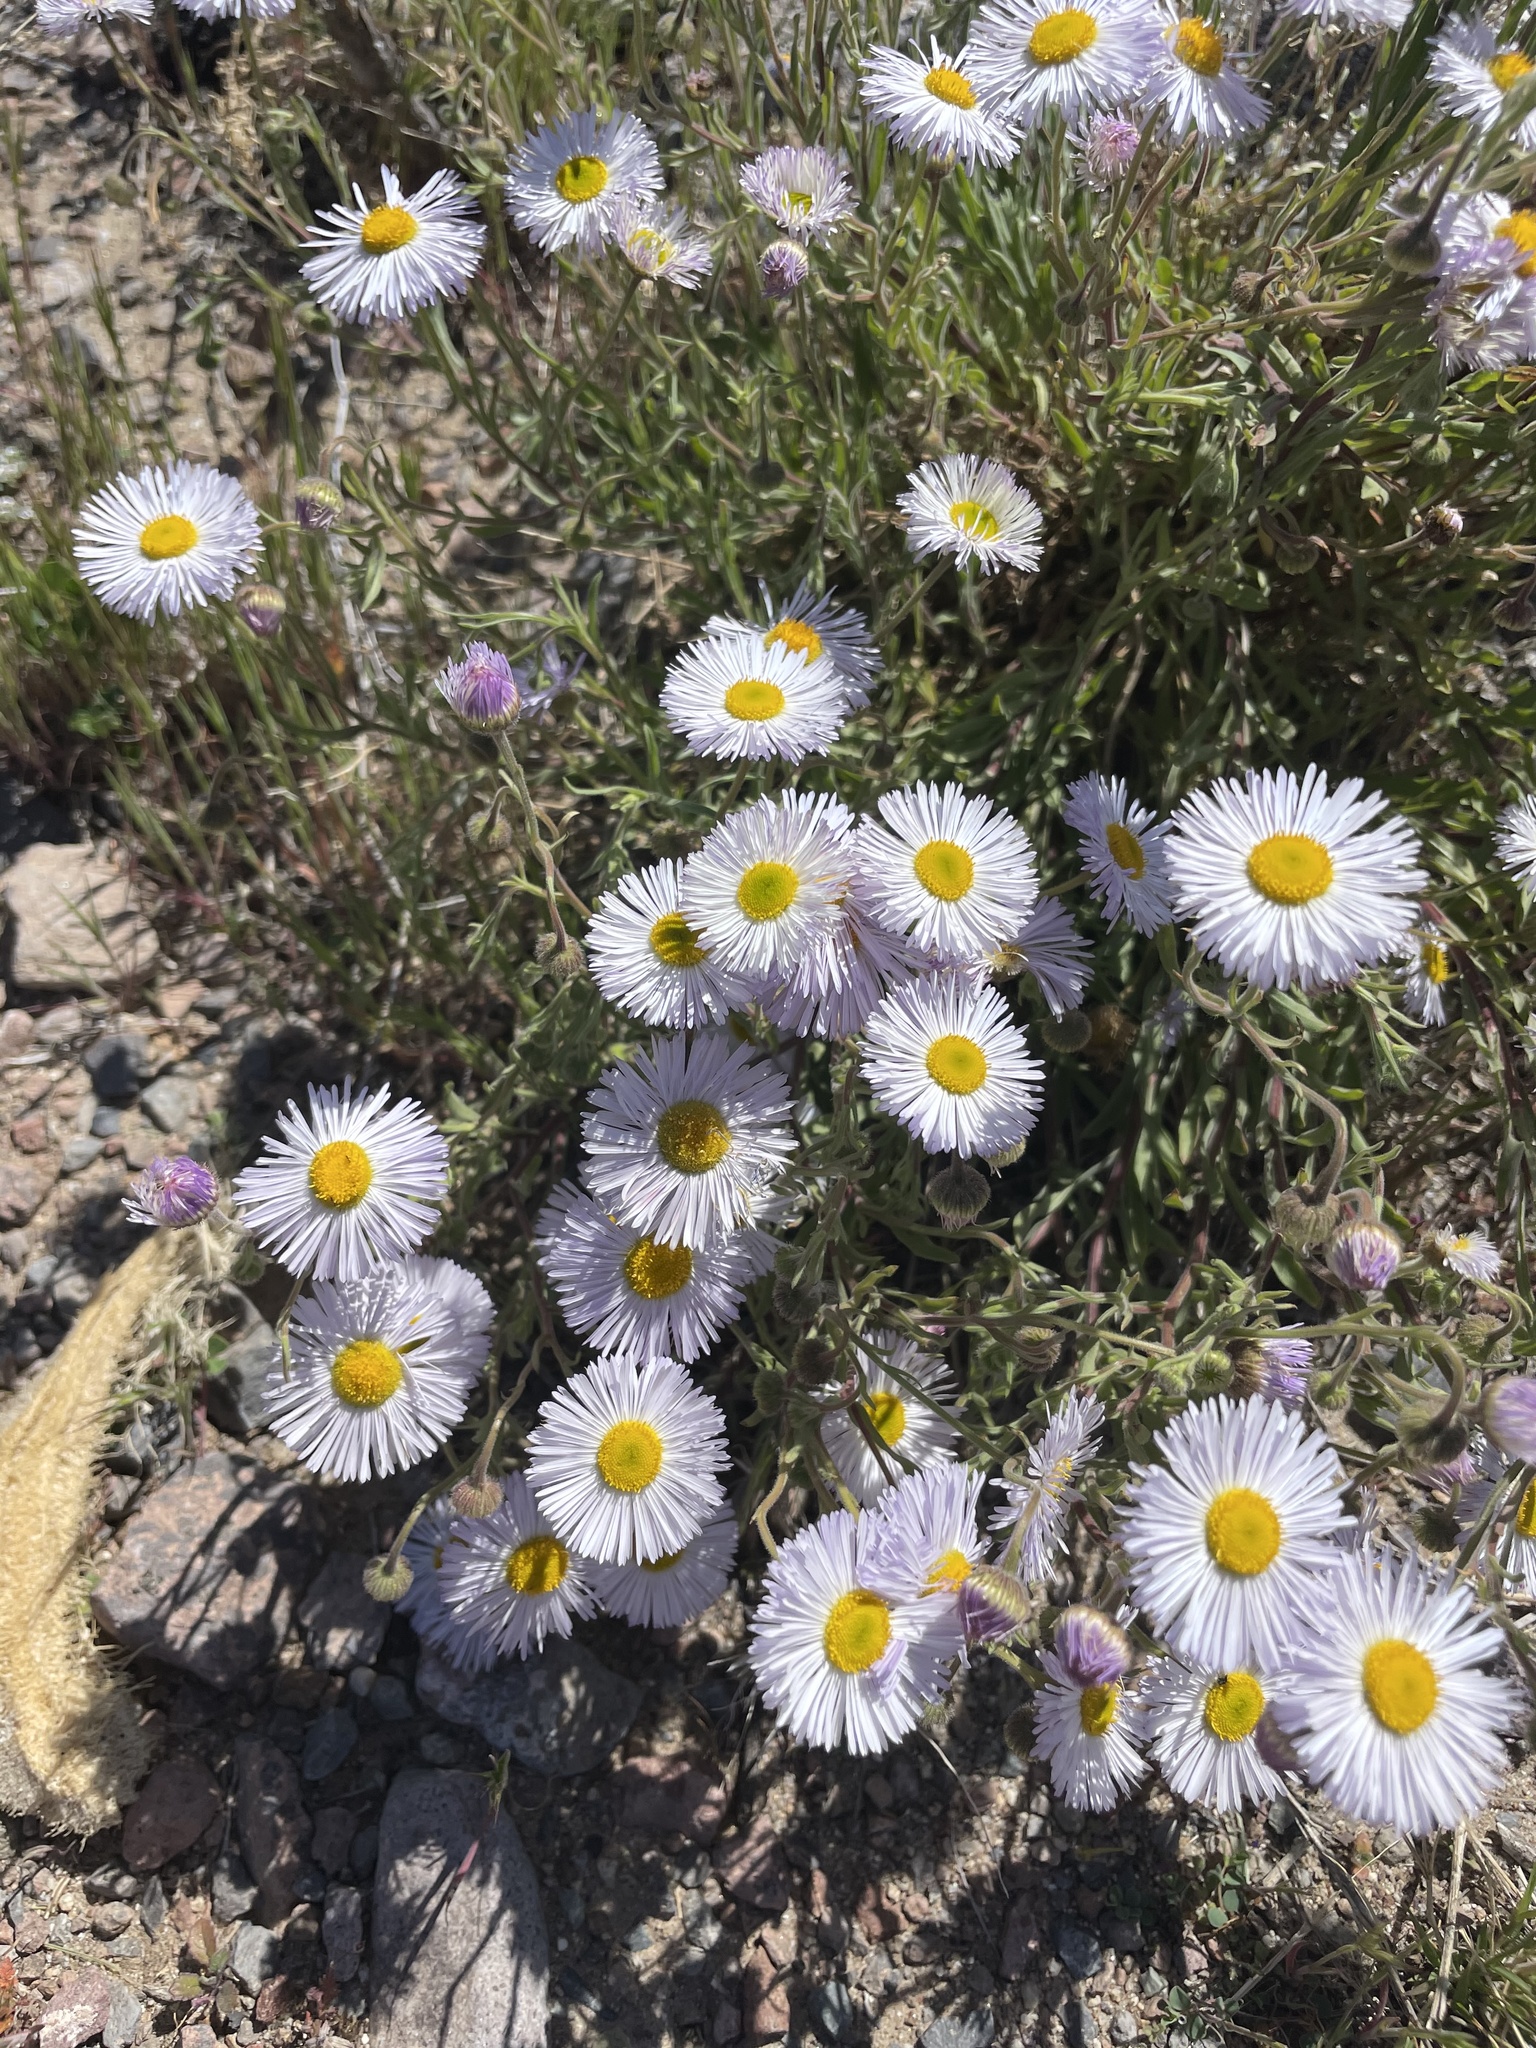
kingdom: Plantae
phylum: Tracheophyta
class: Magnoliopsida
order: Asterales
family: Asteraceae
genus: Erigeron
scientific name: Erigeron divergens
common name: Diffuse fleabane
